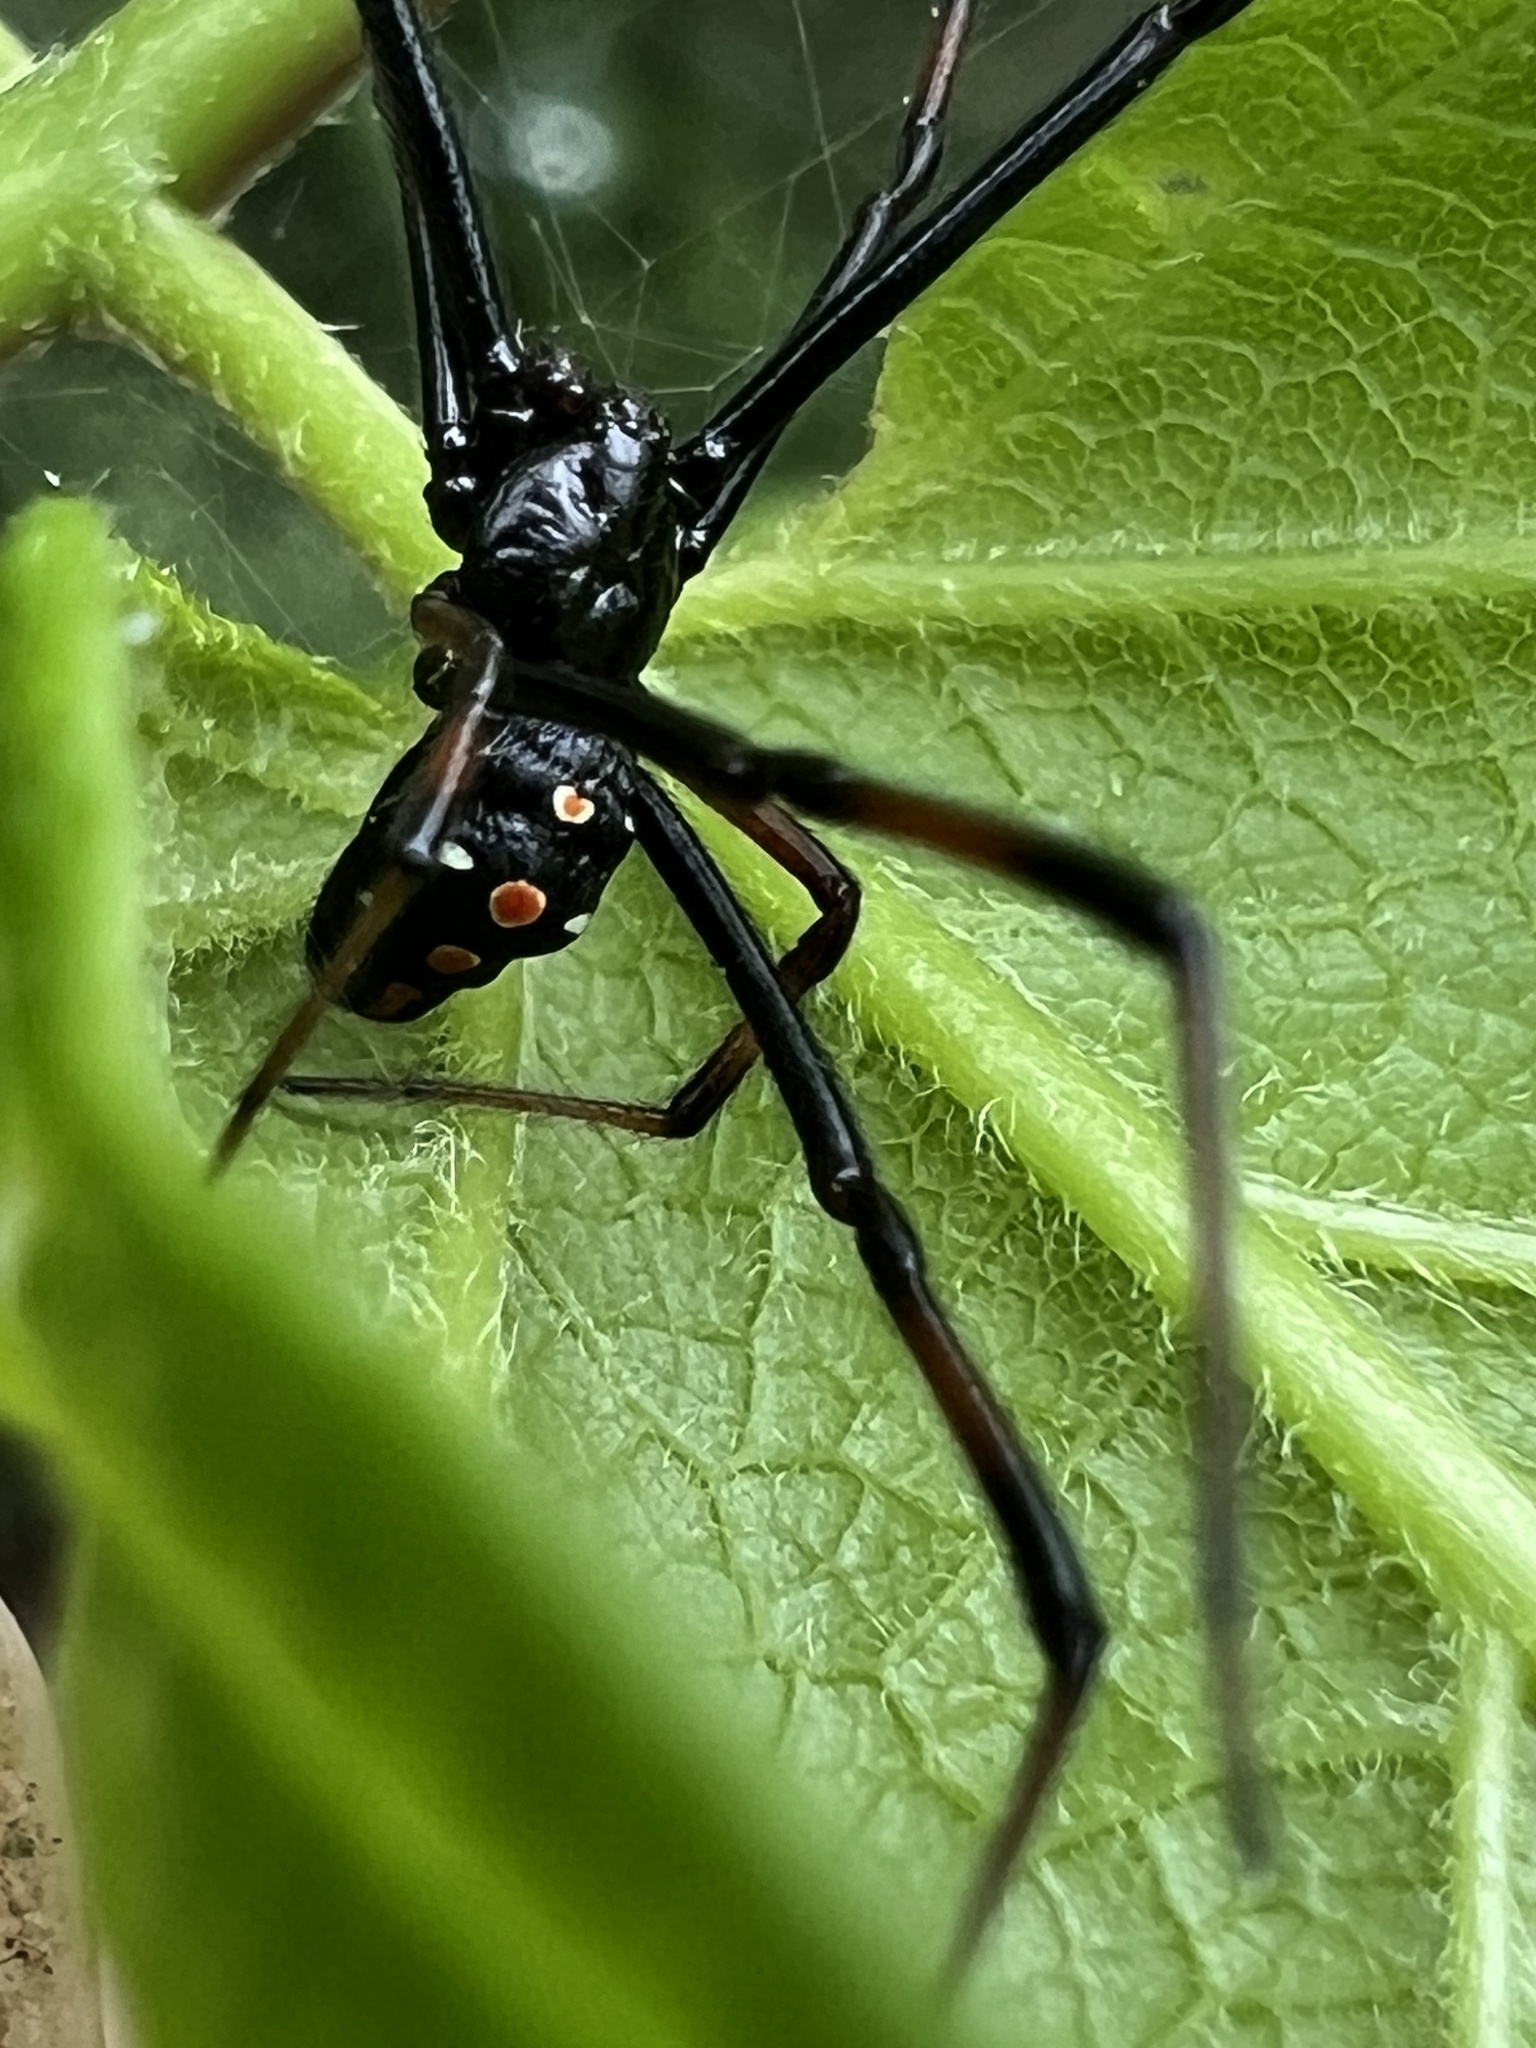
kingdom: Animalia
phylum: Arthropoda
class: Arachnida
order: Araneae
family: Theridiidae
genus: Latrodectus
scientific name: Latrodectus variolus
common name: Northern black widow
